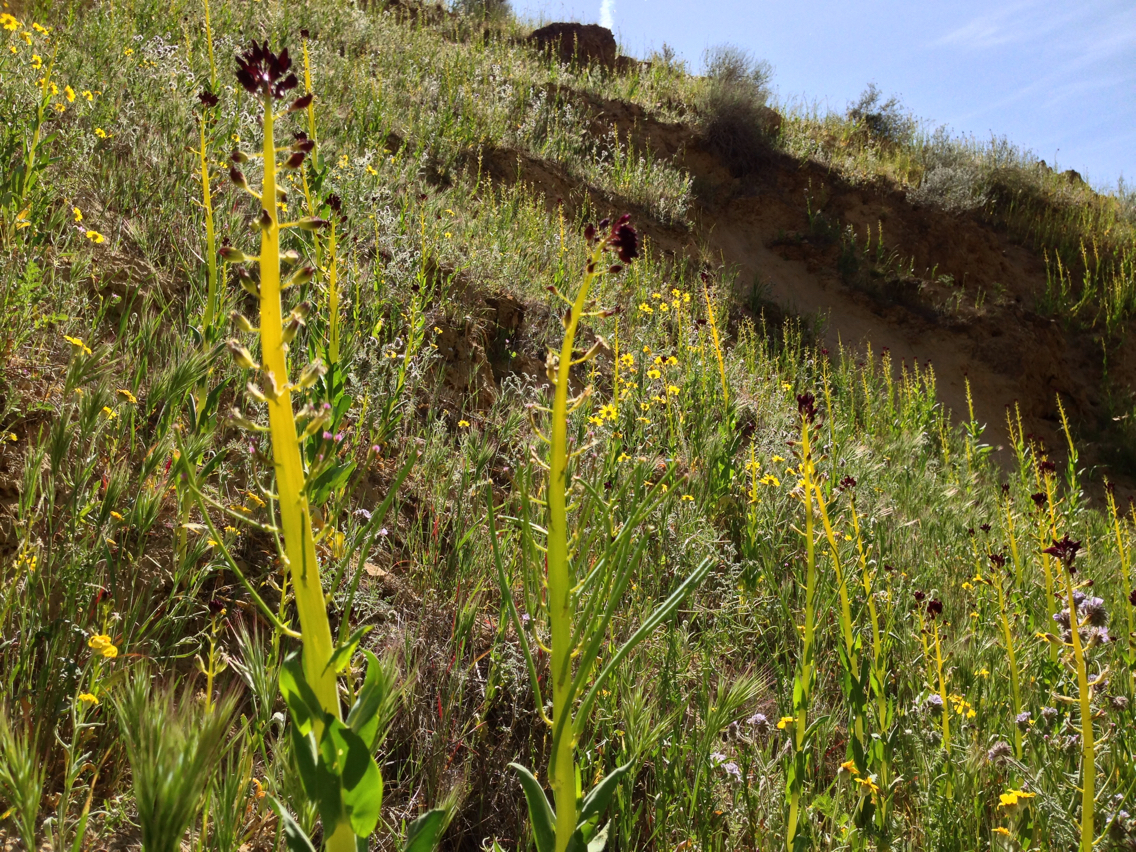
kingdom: Plantae
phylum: Tracheophyta
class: Magnoliopsida
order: Brassicales
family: Brassicaceae
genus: Streptanthus
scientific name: Streptanthus inflatus
